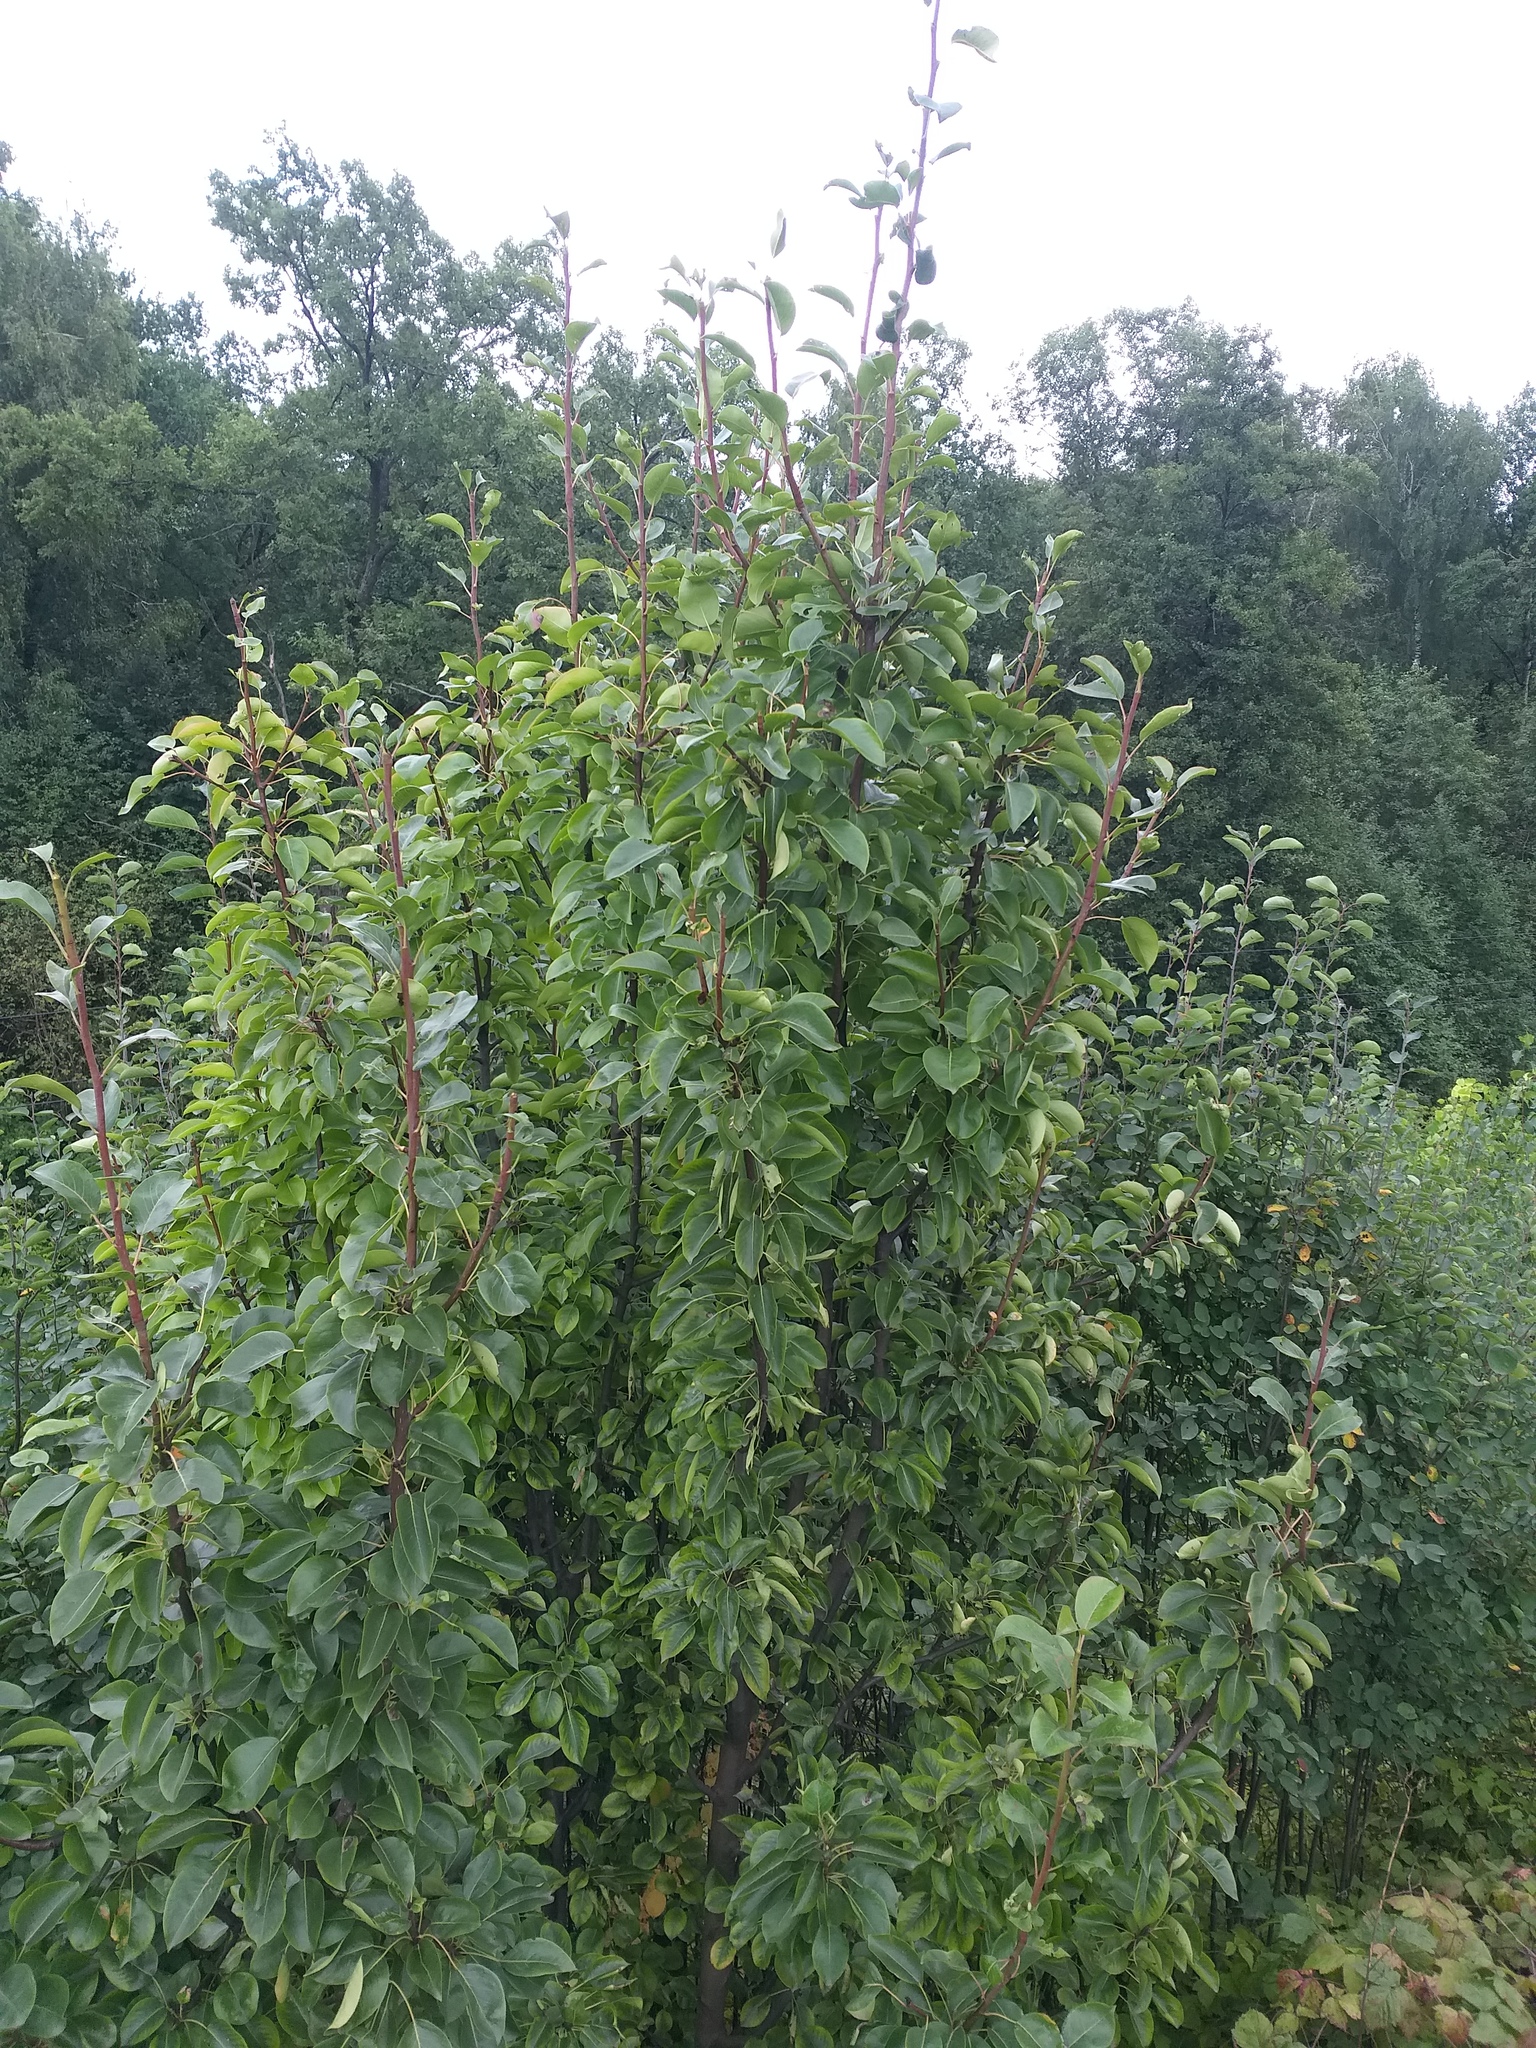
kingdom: Plantae
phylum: Tracheophyta
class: Magnoliopsida
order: Rosales
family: Rosaceae
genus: Pyrus
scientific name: Pyrus communis
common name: Pear
